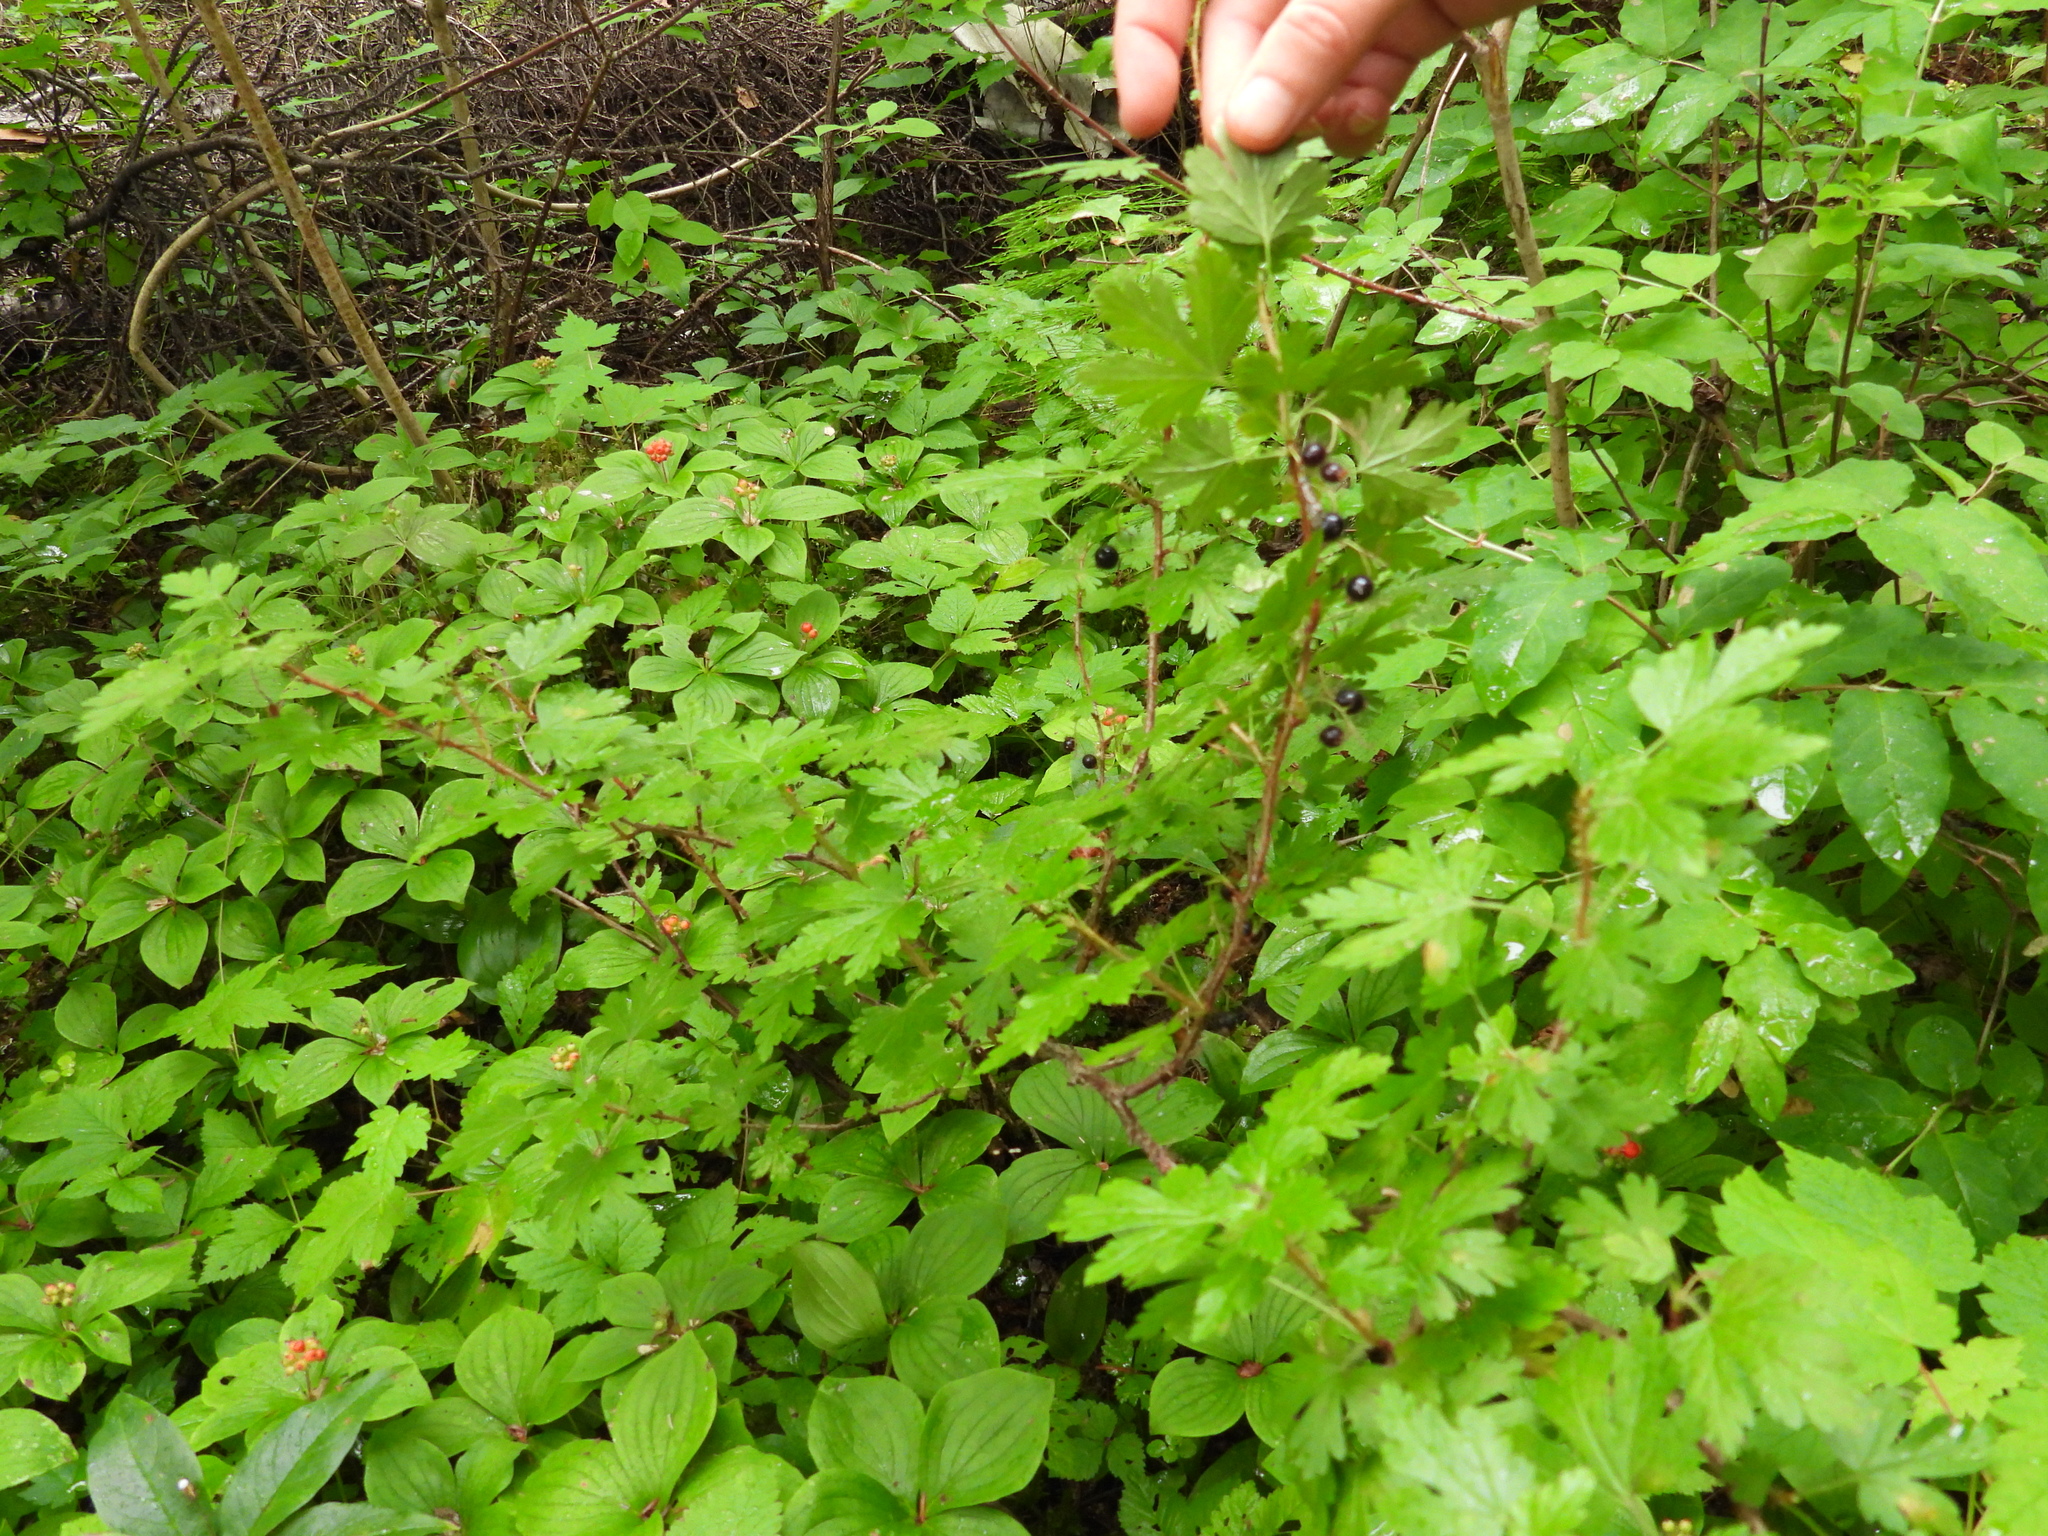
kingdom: Plantae
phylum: Tracheophyta
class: Magnoliopsida
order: Saxifragales
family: Grossulariaceae
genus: Ribes
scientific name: Ribes lacustre
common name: Black gooseberry
